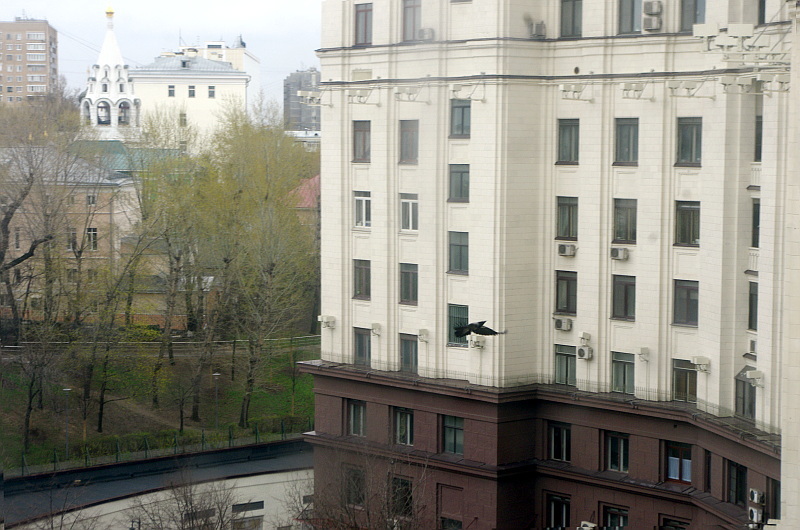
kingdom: Animalia
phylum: Chordata
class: Aves
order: Passeriformes
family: Corvidae
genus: Corvus
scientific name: Corvus cornix
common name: Hooded crow
